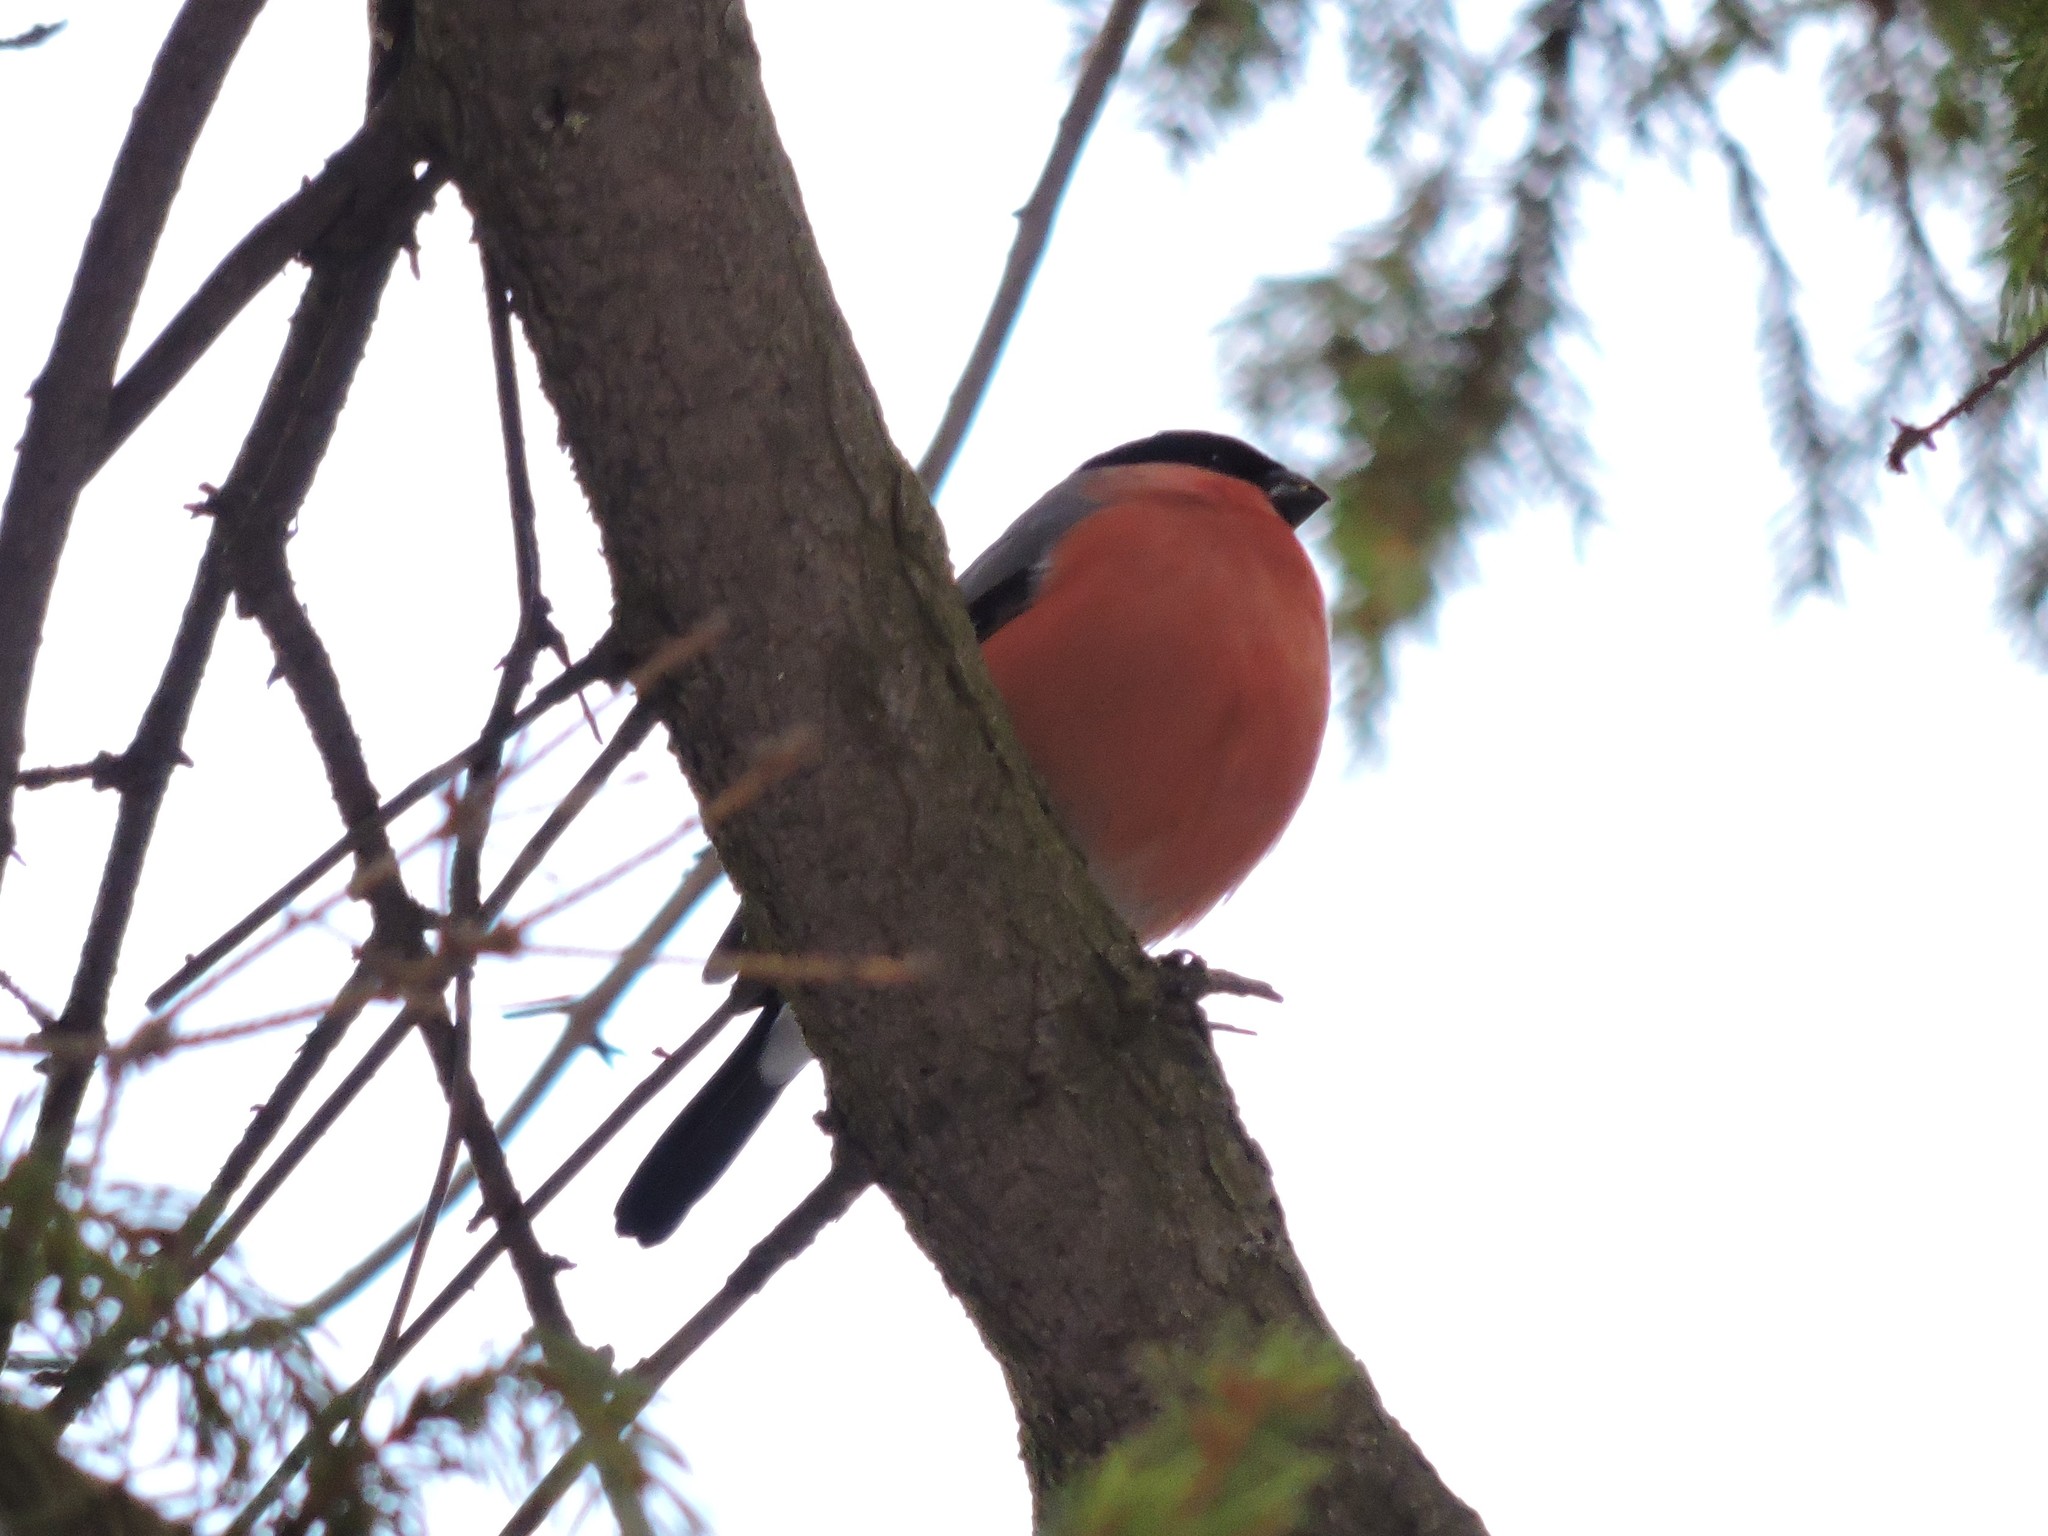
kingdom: Animalia
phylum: Chordata
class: Aves
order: Passeriformes
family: Fringillidae
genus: Pyrrhula
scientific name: Pyrrhula pyrrhula
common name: Eurasian bullfinch
